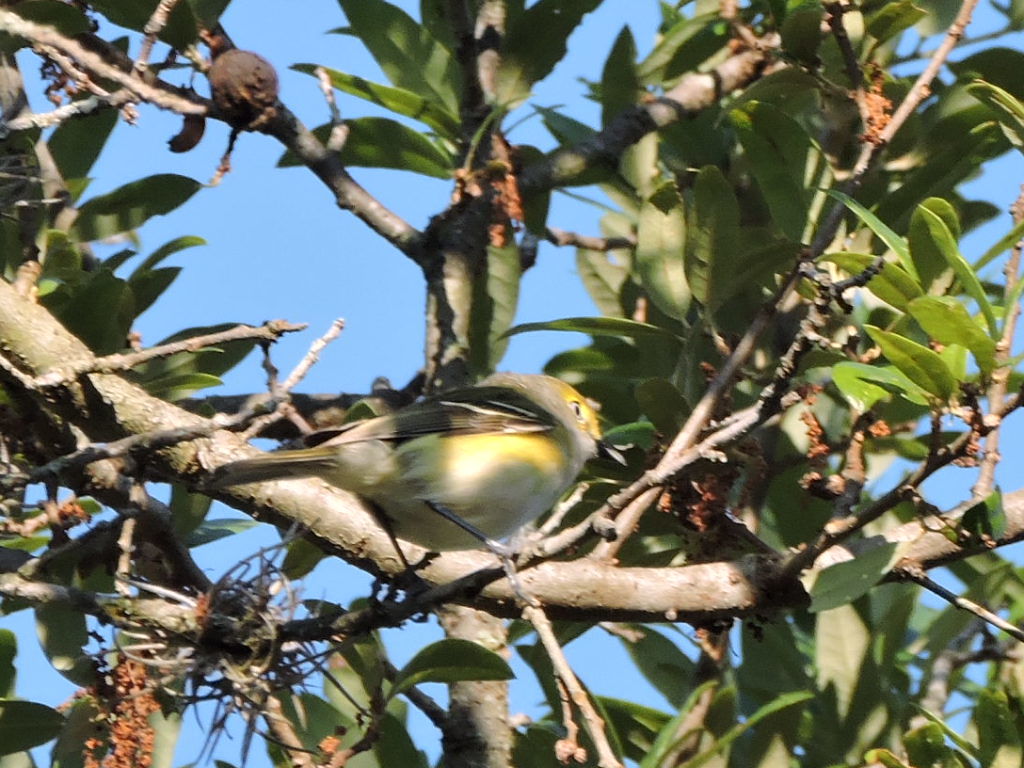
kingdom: Animalia
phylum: Chordata
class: Aves
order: Passeriformes
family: Vireonidae
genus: Vireo
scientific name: Vireo griseus
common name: White-eyed vireo
